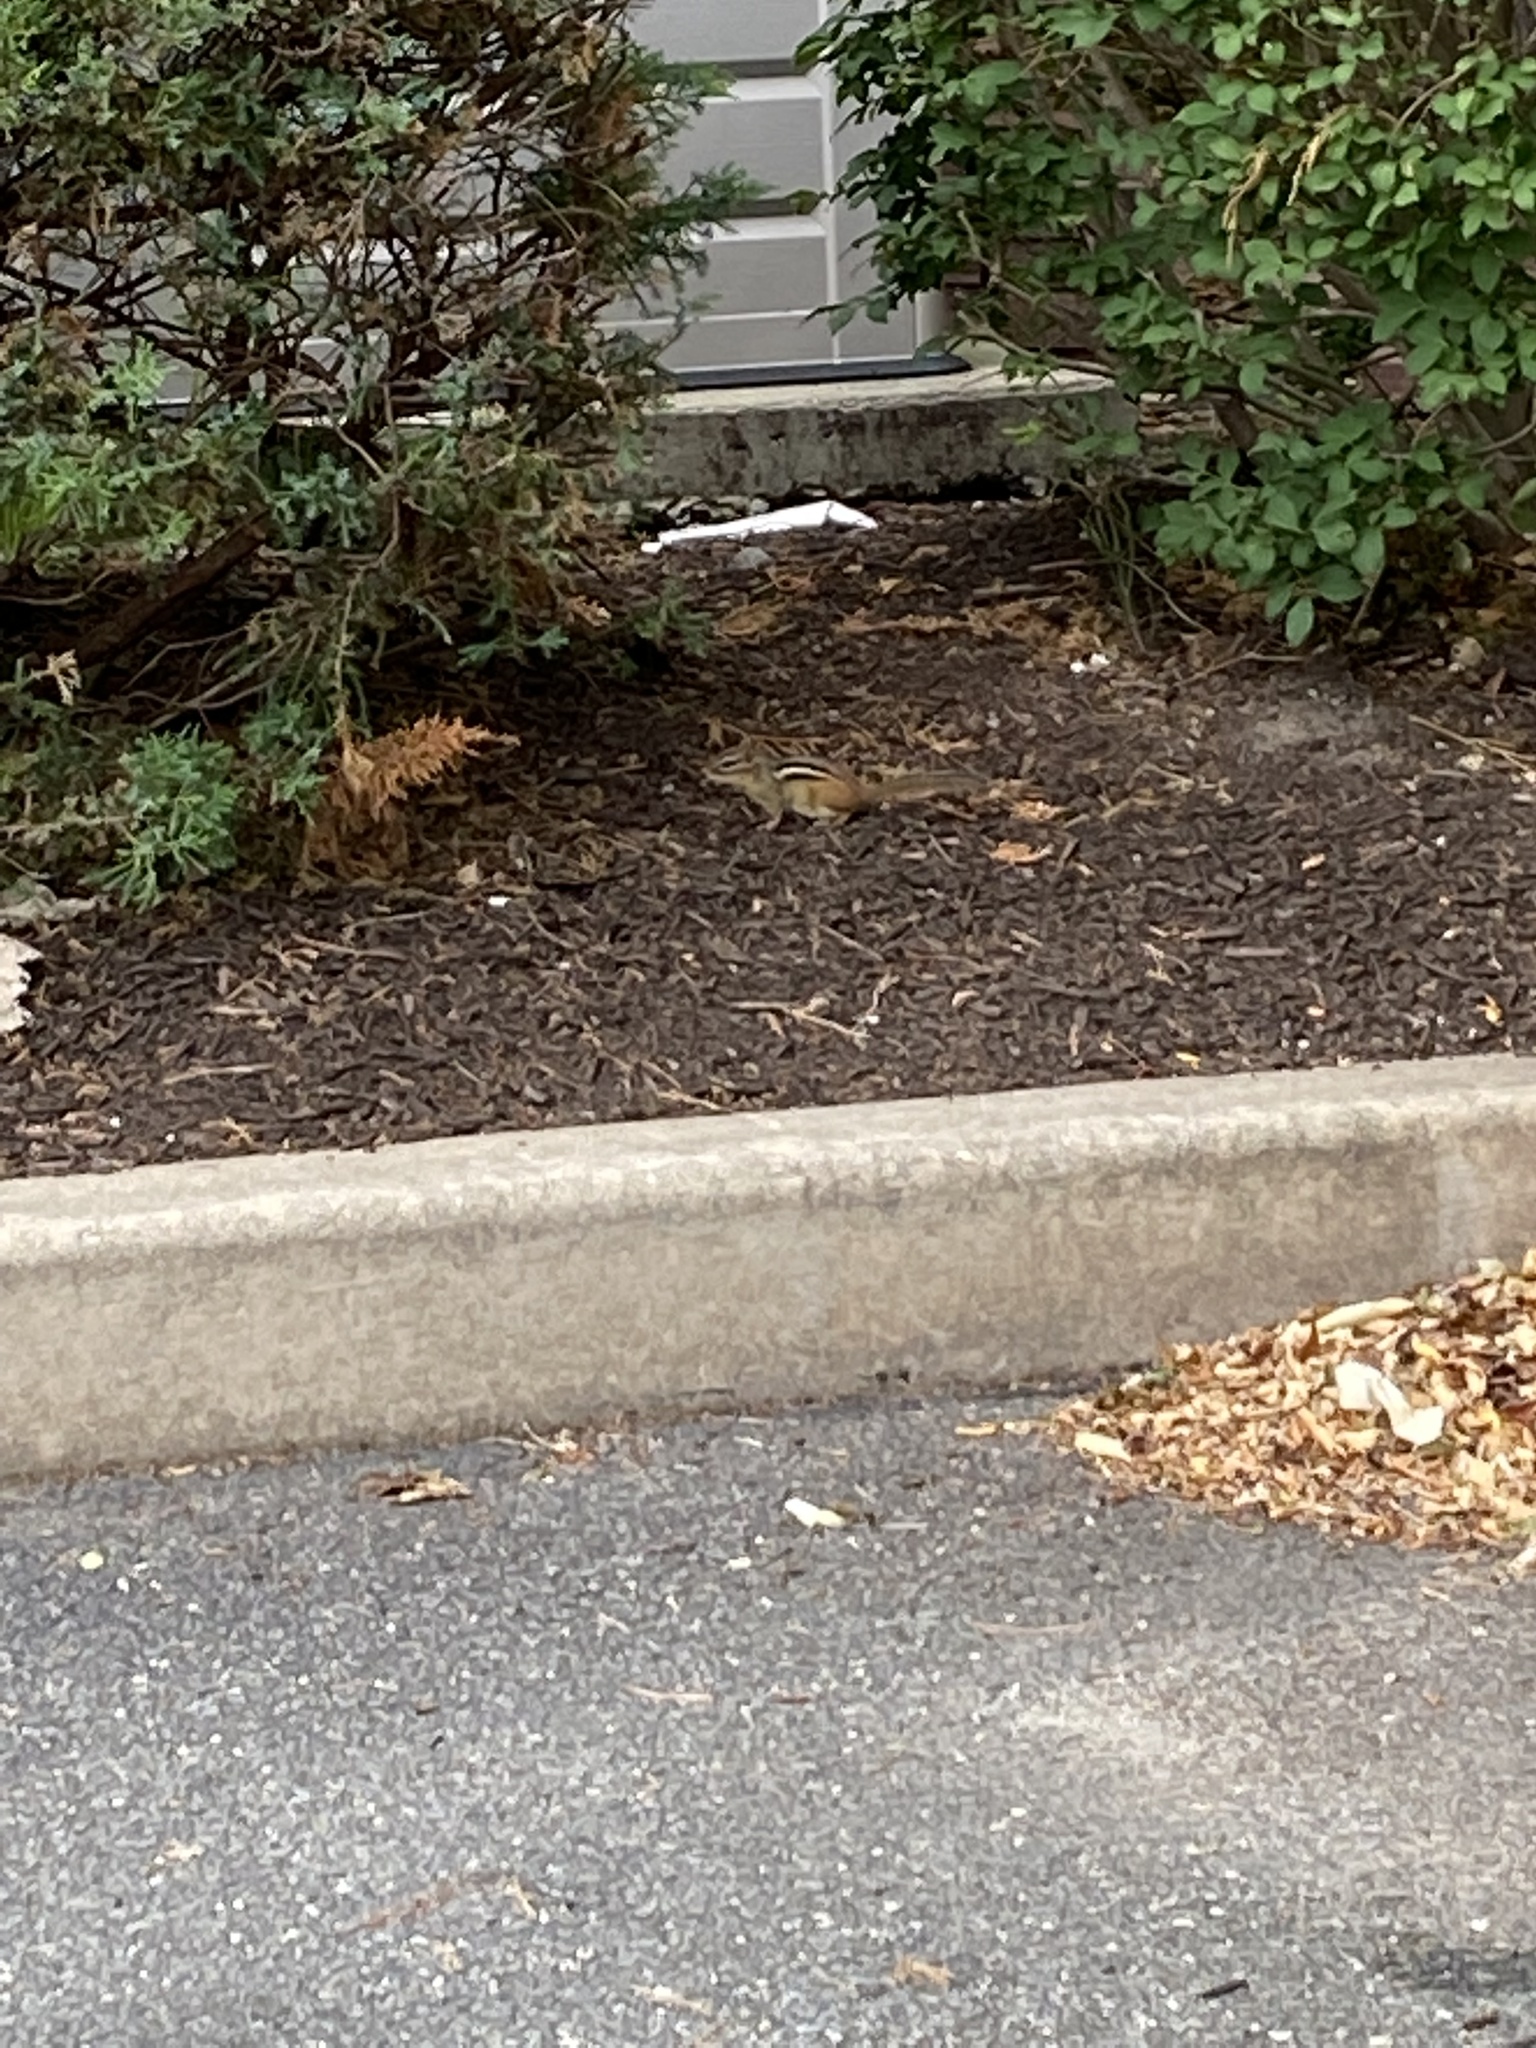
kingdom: Animalia
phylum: Chordata
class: Mammalia
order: Rodentia
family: Sciuridae
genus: Tamias
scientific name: Tamias striatus
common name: Eastern chipmunk
